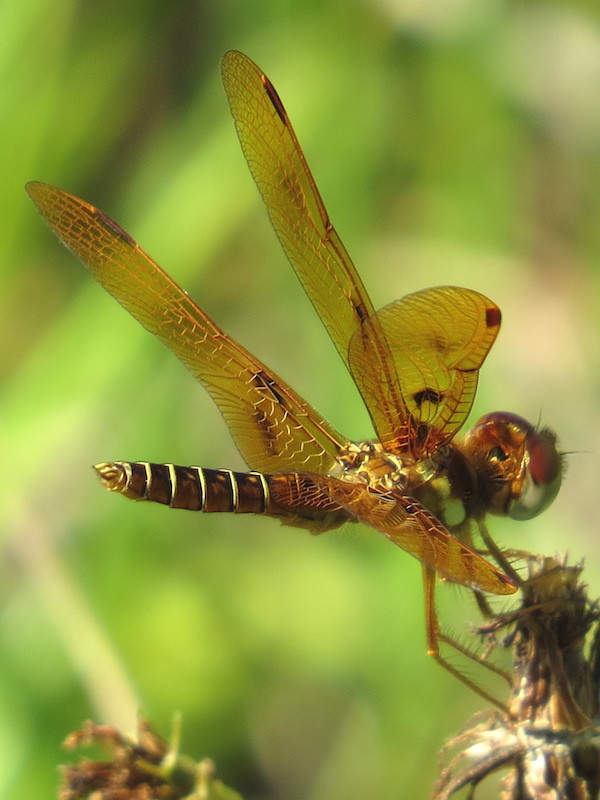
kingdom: Animalia
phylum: Arthropoda
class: Insecta
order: Odonata
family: Libellulidae
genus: Perithemis
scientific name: Perithemis tenera
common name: Eastern amberwing
